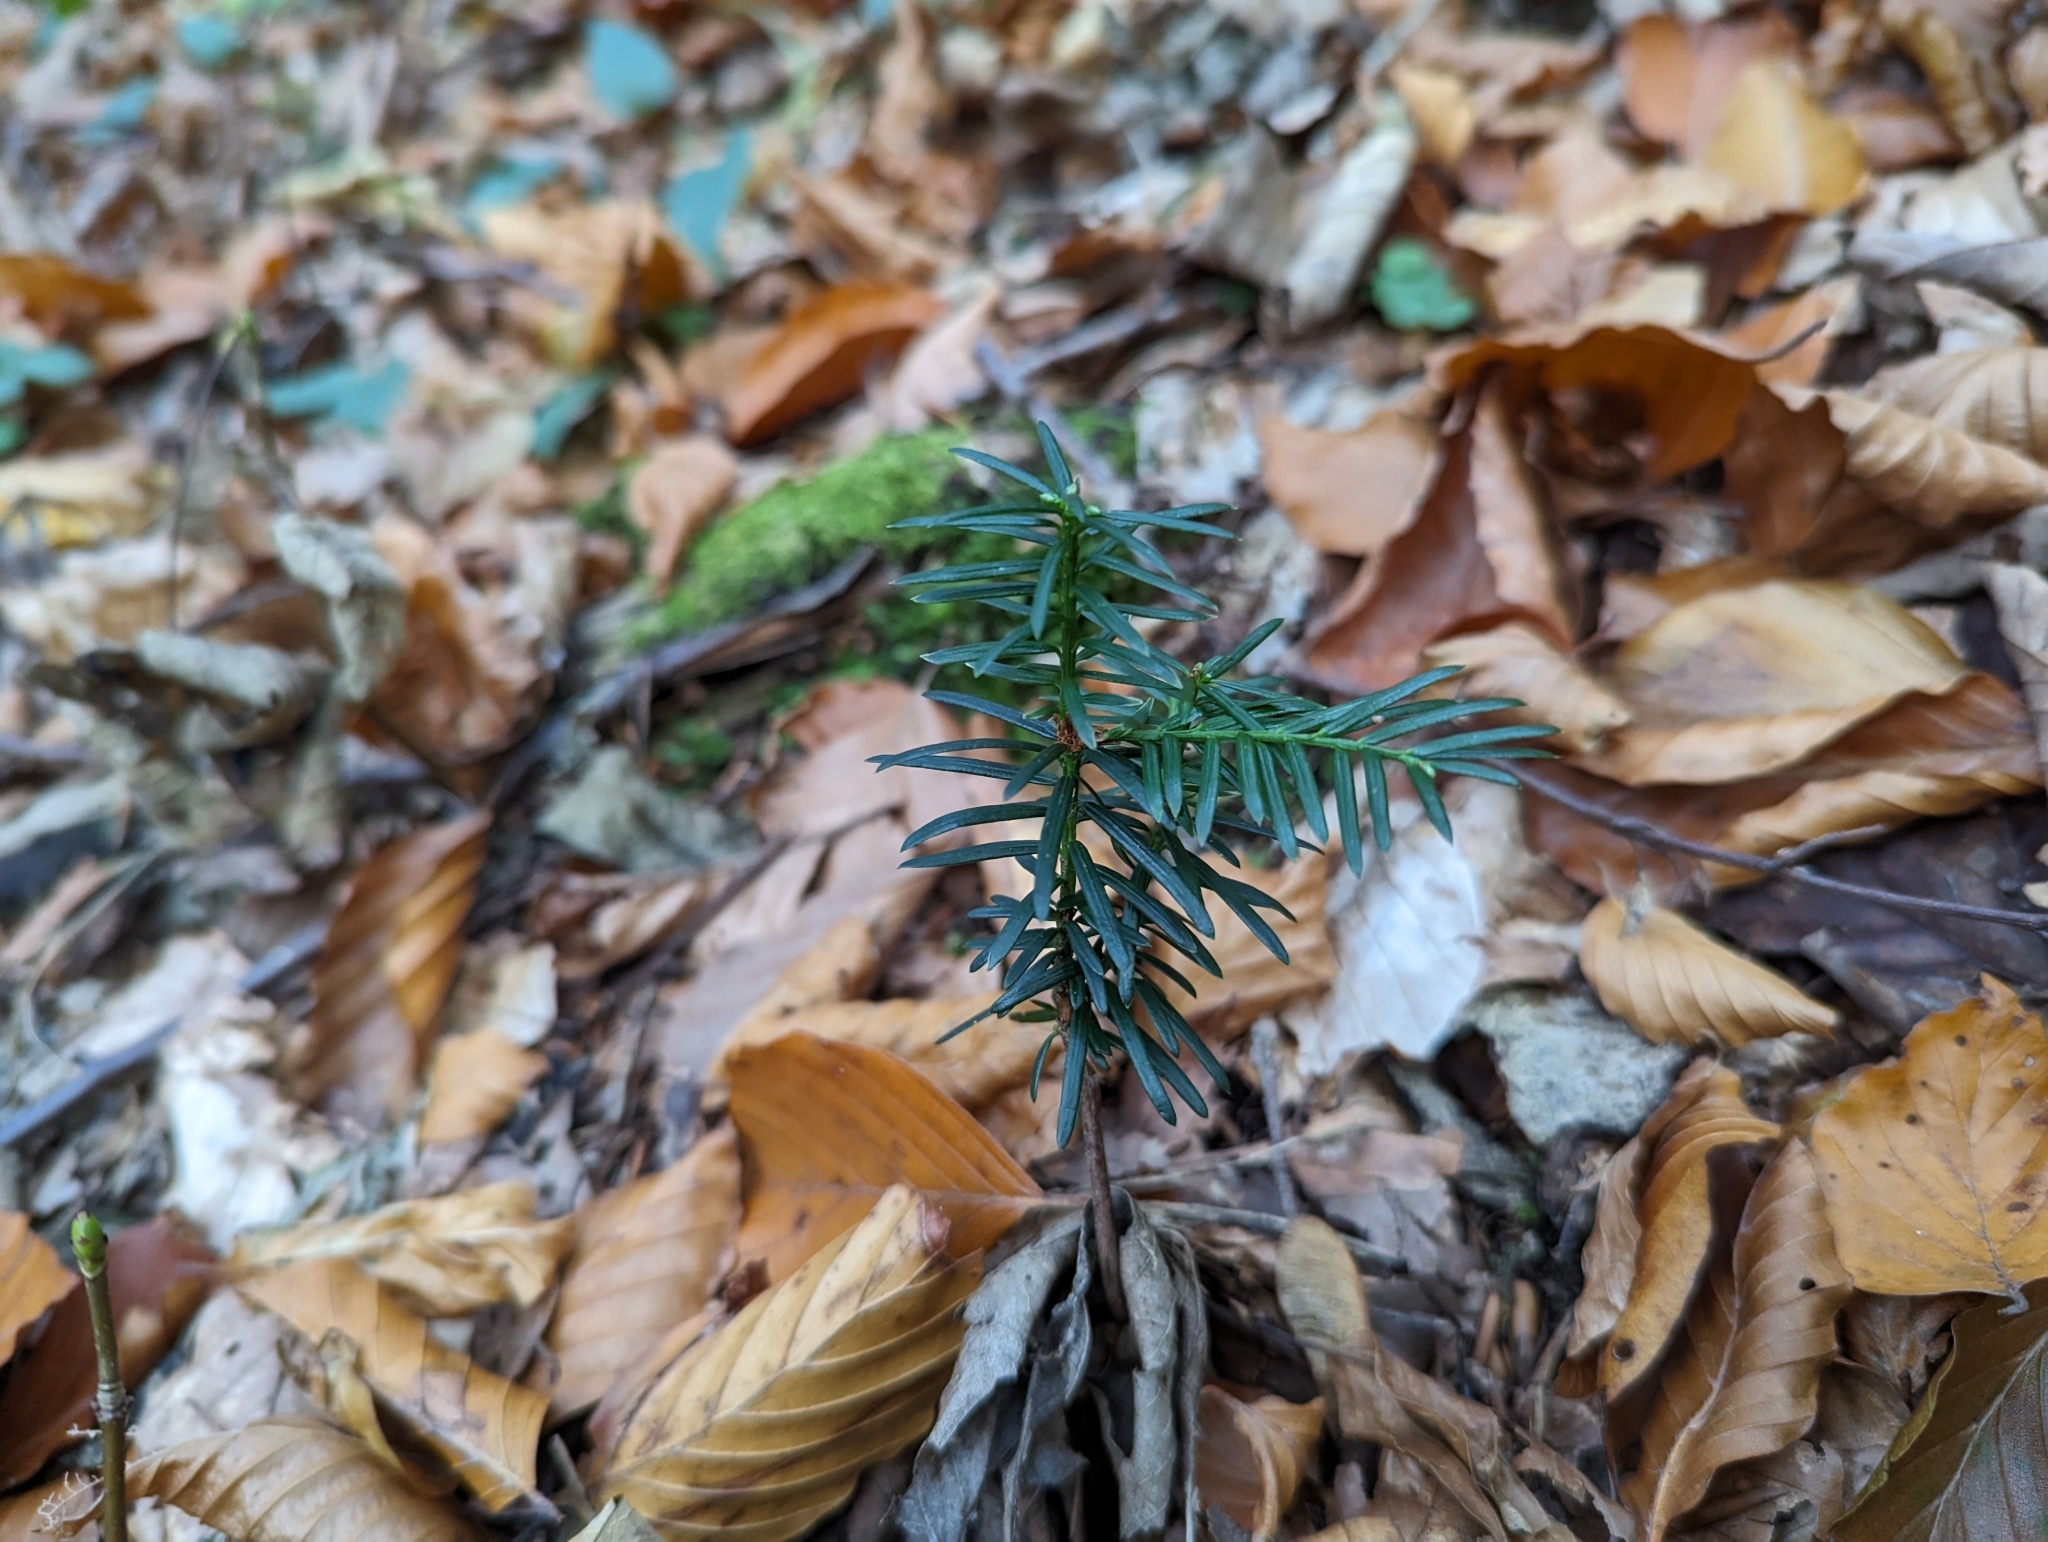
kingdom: Plantae
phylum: Tracheophyta
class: Pinopsida
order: Pinales
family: Taxaceae
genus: Taxus
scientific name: Taxus baccata
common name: Yew
